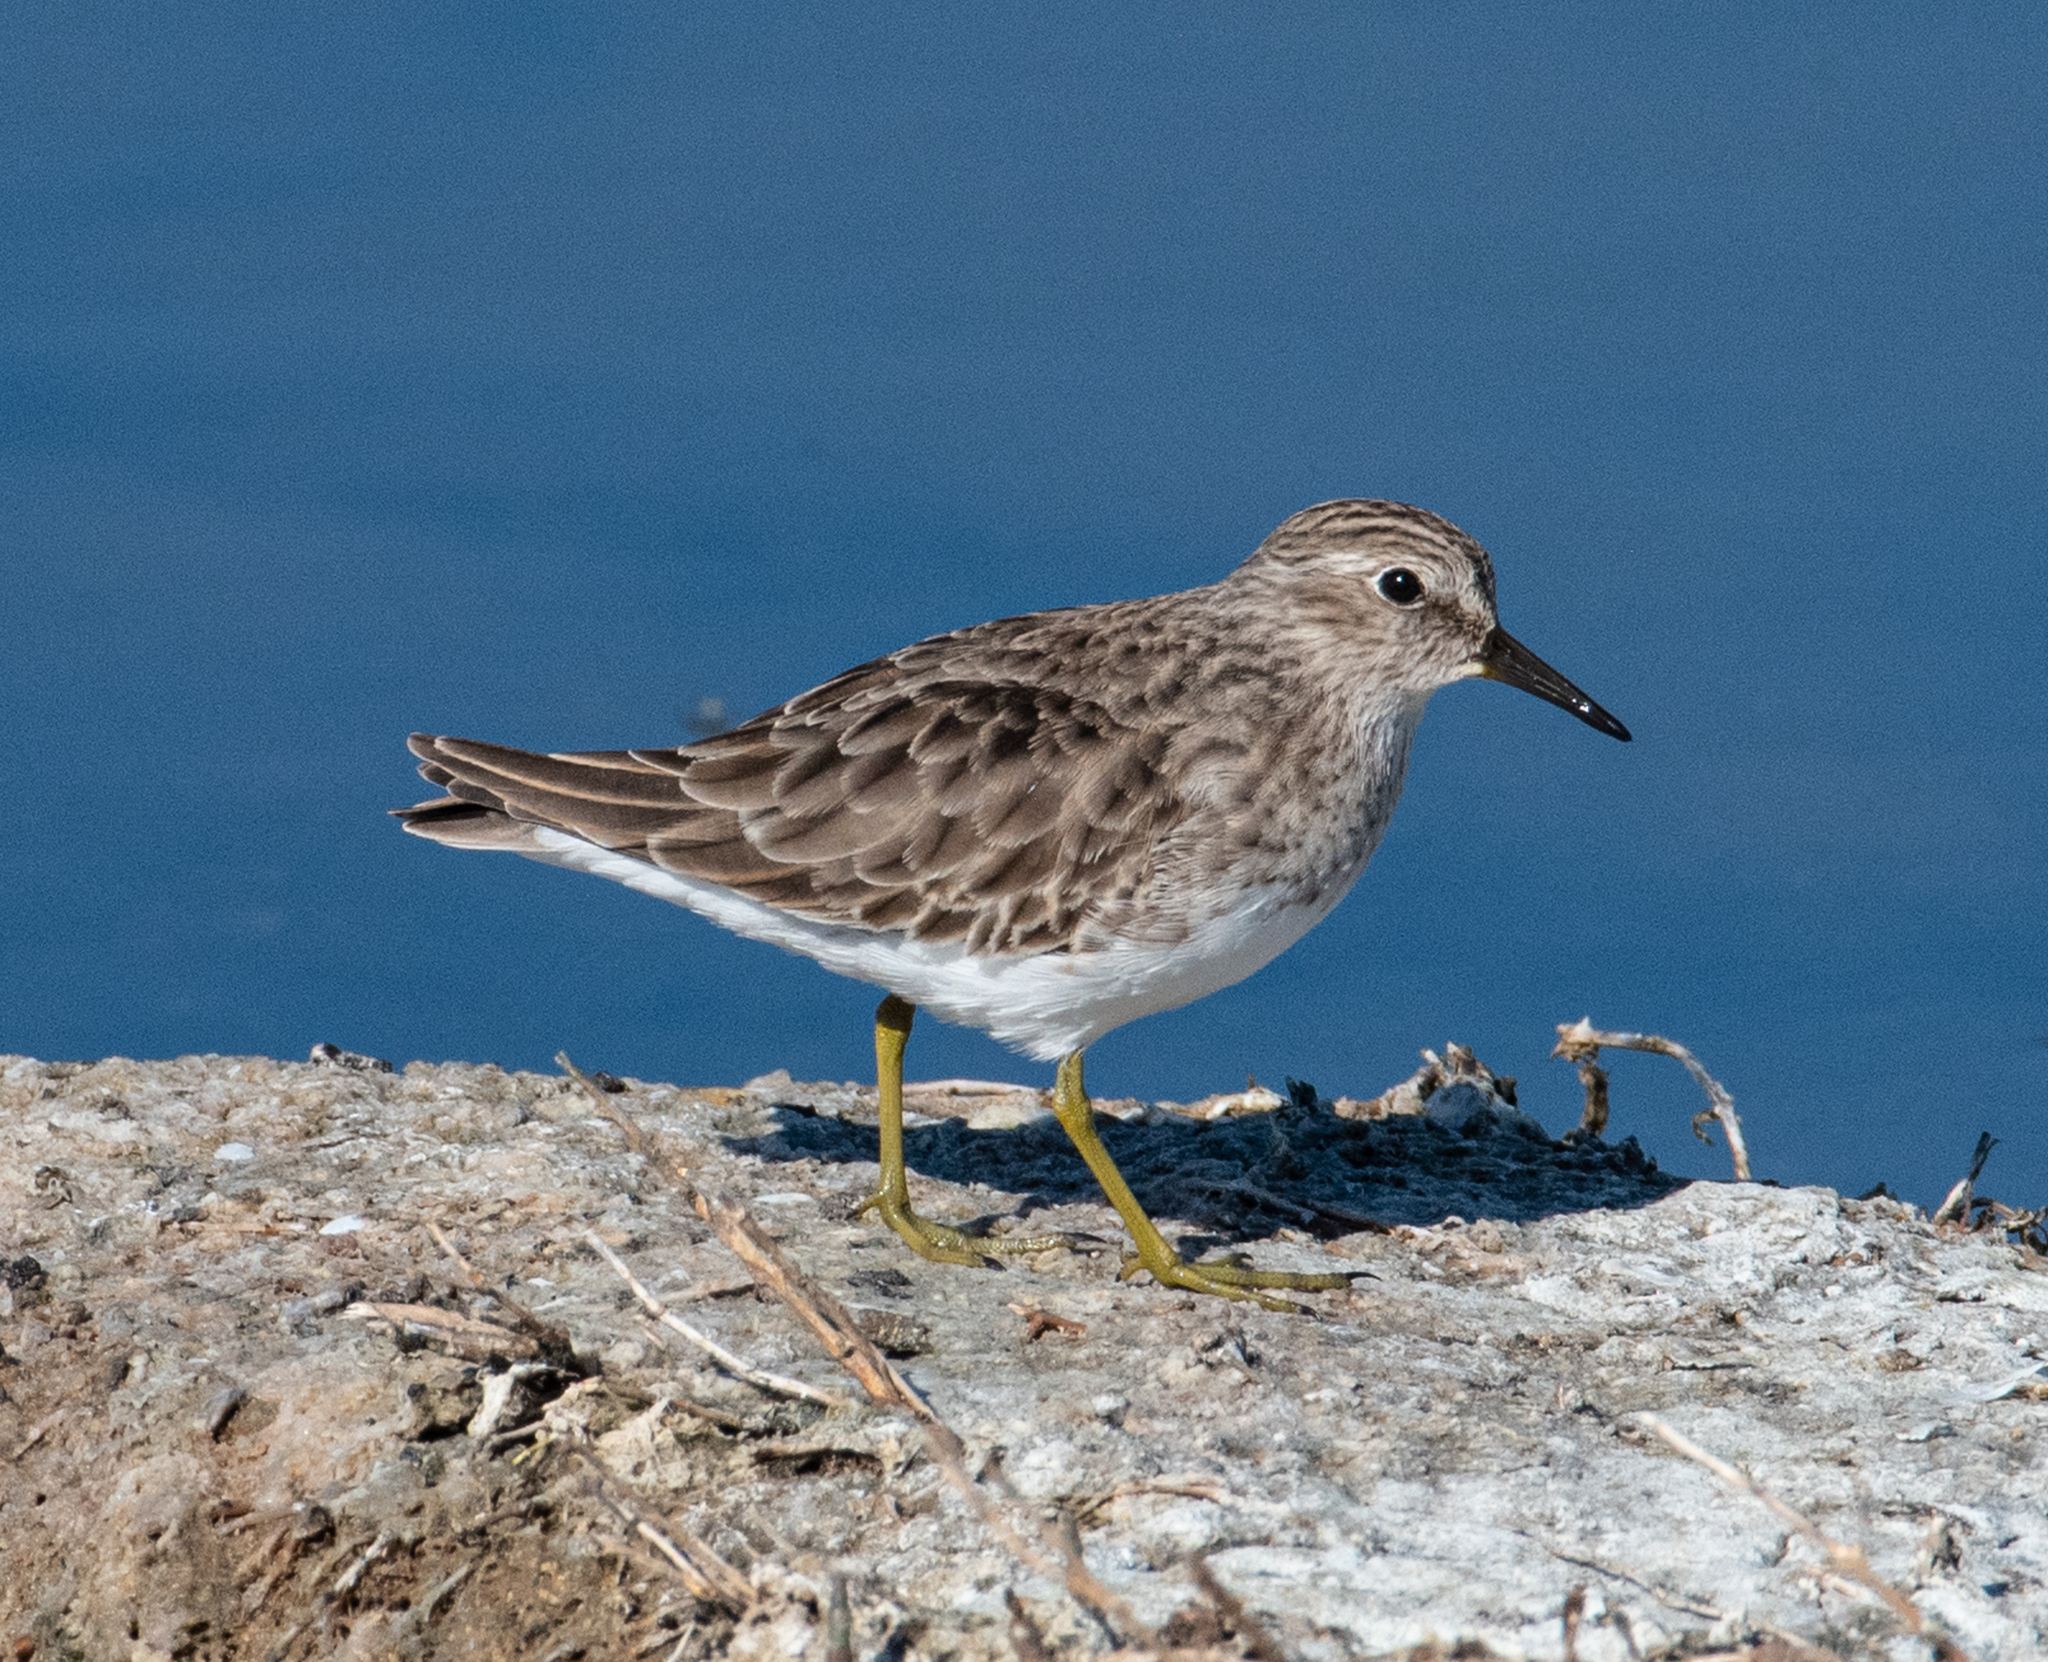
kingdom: Animalia
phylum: Chordata
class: Aves
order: Charadriiformes
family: Scolopacidae
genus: Calidris
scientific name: Calidris minutilla
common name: Least sandpiper
